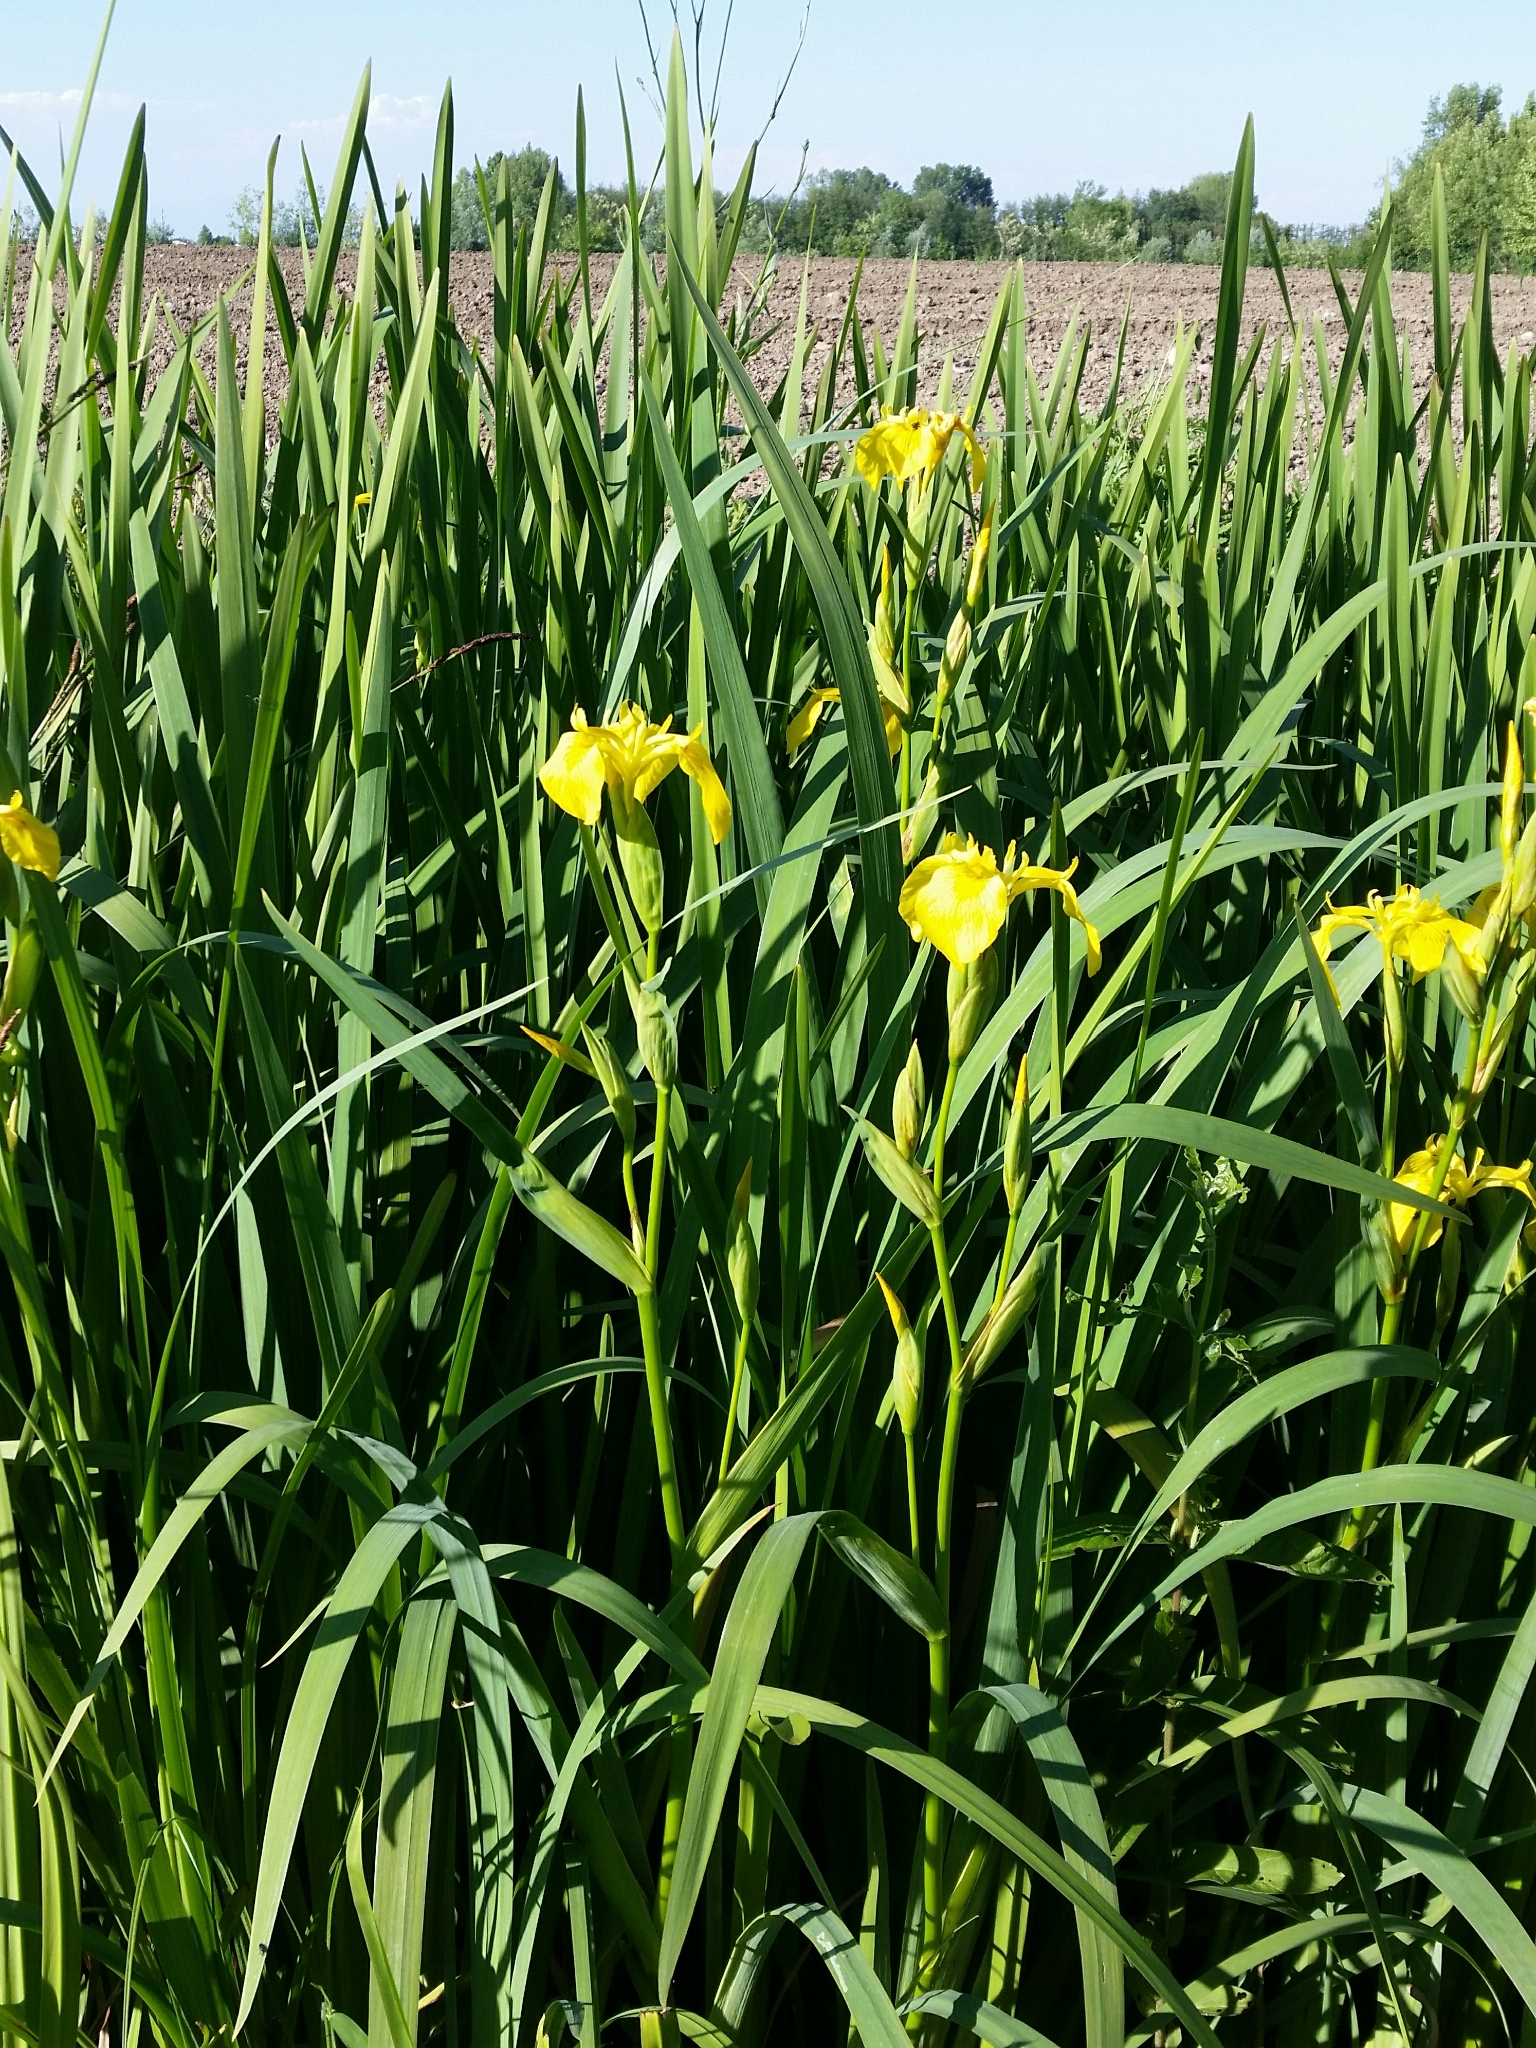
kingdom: Plantae
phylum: Tracheophyta
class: Liliopsida
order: Asparagales
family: Iridaceae
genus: Iris
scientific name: Iris pseudacorus
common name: Yellow flag
